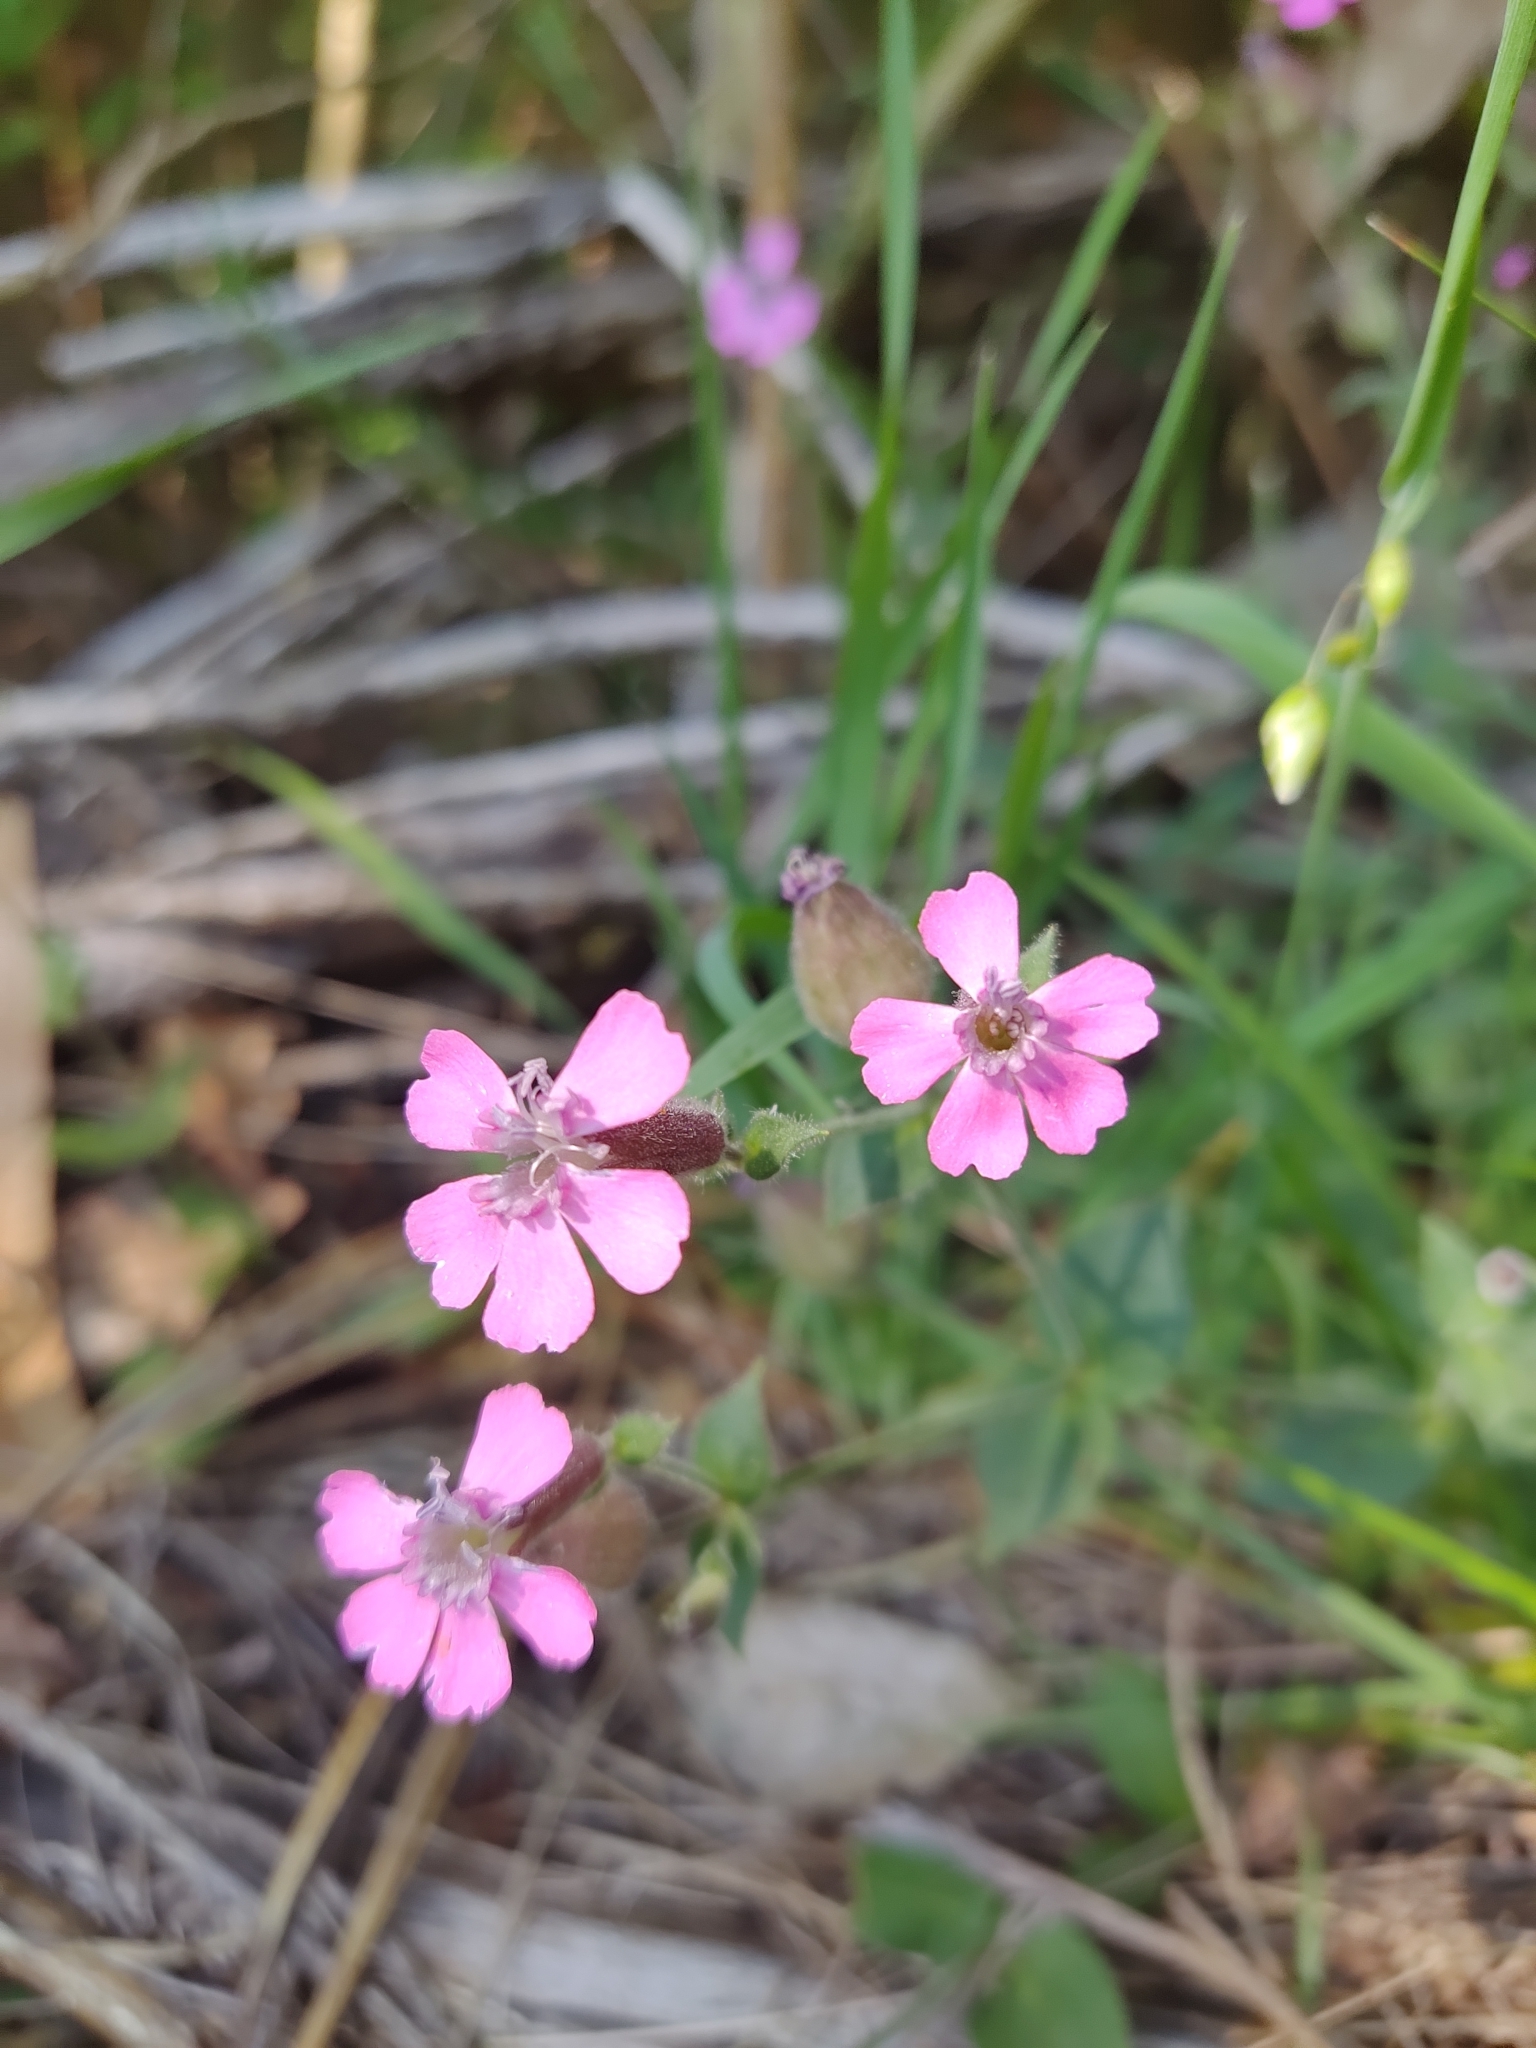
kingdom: Plantae
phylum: Tracheophyta
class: Magnoliopsida
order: Caryophyllales
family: Caryophyllaceae
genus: Silene
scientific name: Silene acutifolia
